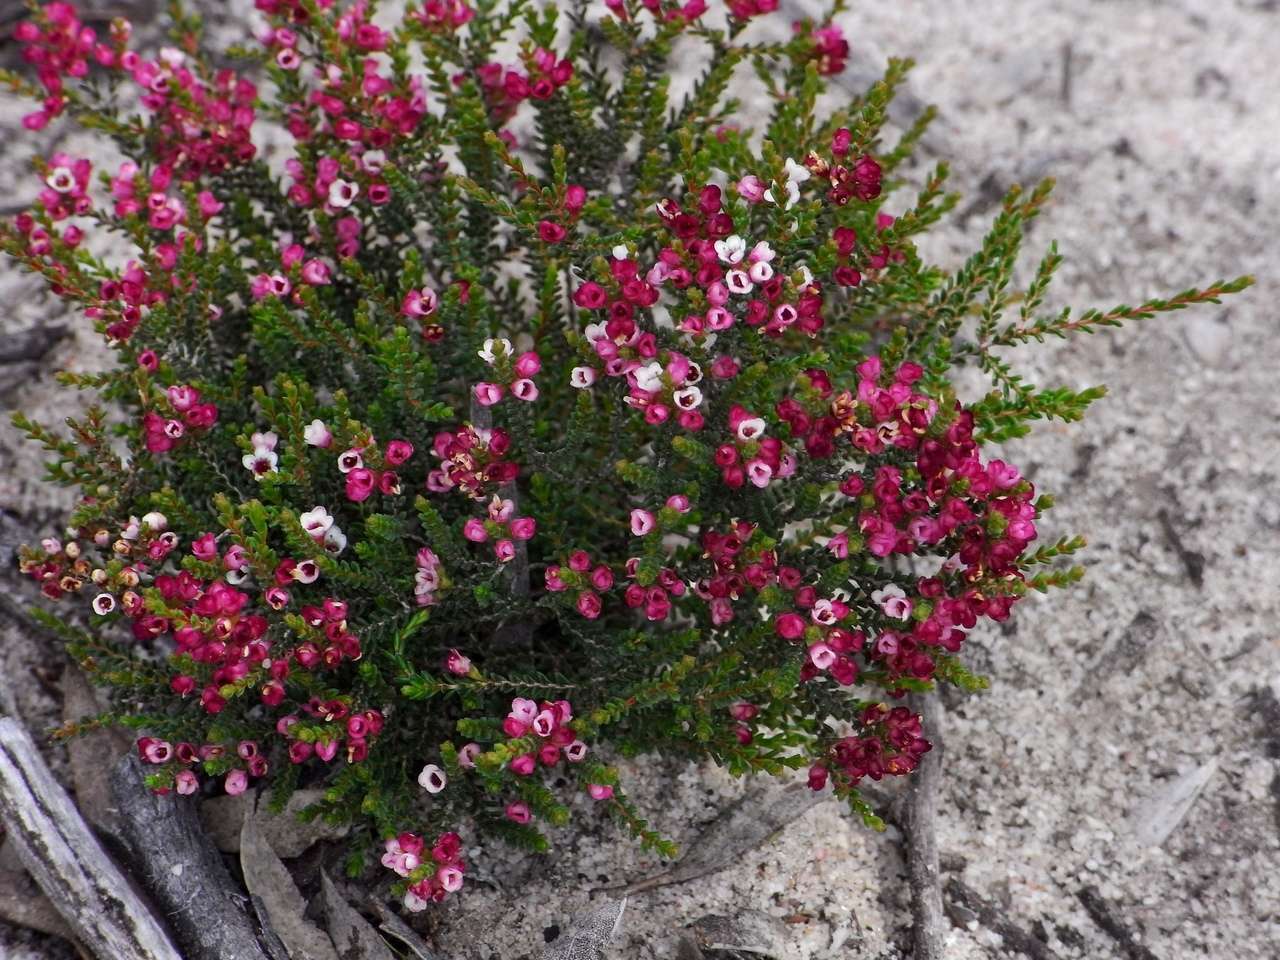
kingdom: Plantae
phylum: Tracheophyta
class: Magnoliopsida
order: Myrtales
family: Myrtaceae
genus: Micromyrtus
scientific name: Micromyrtus ciliata
